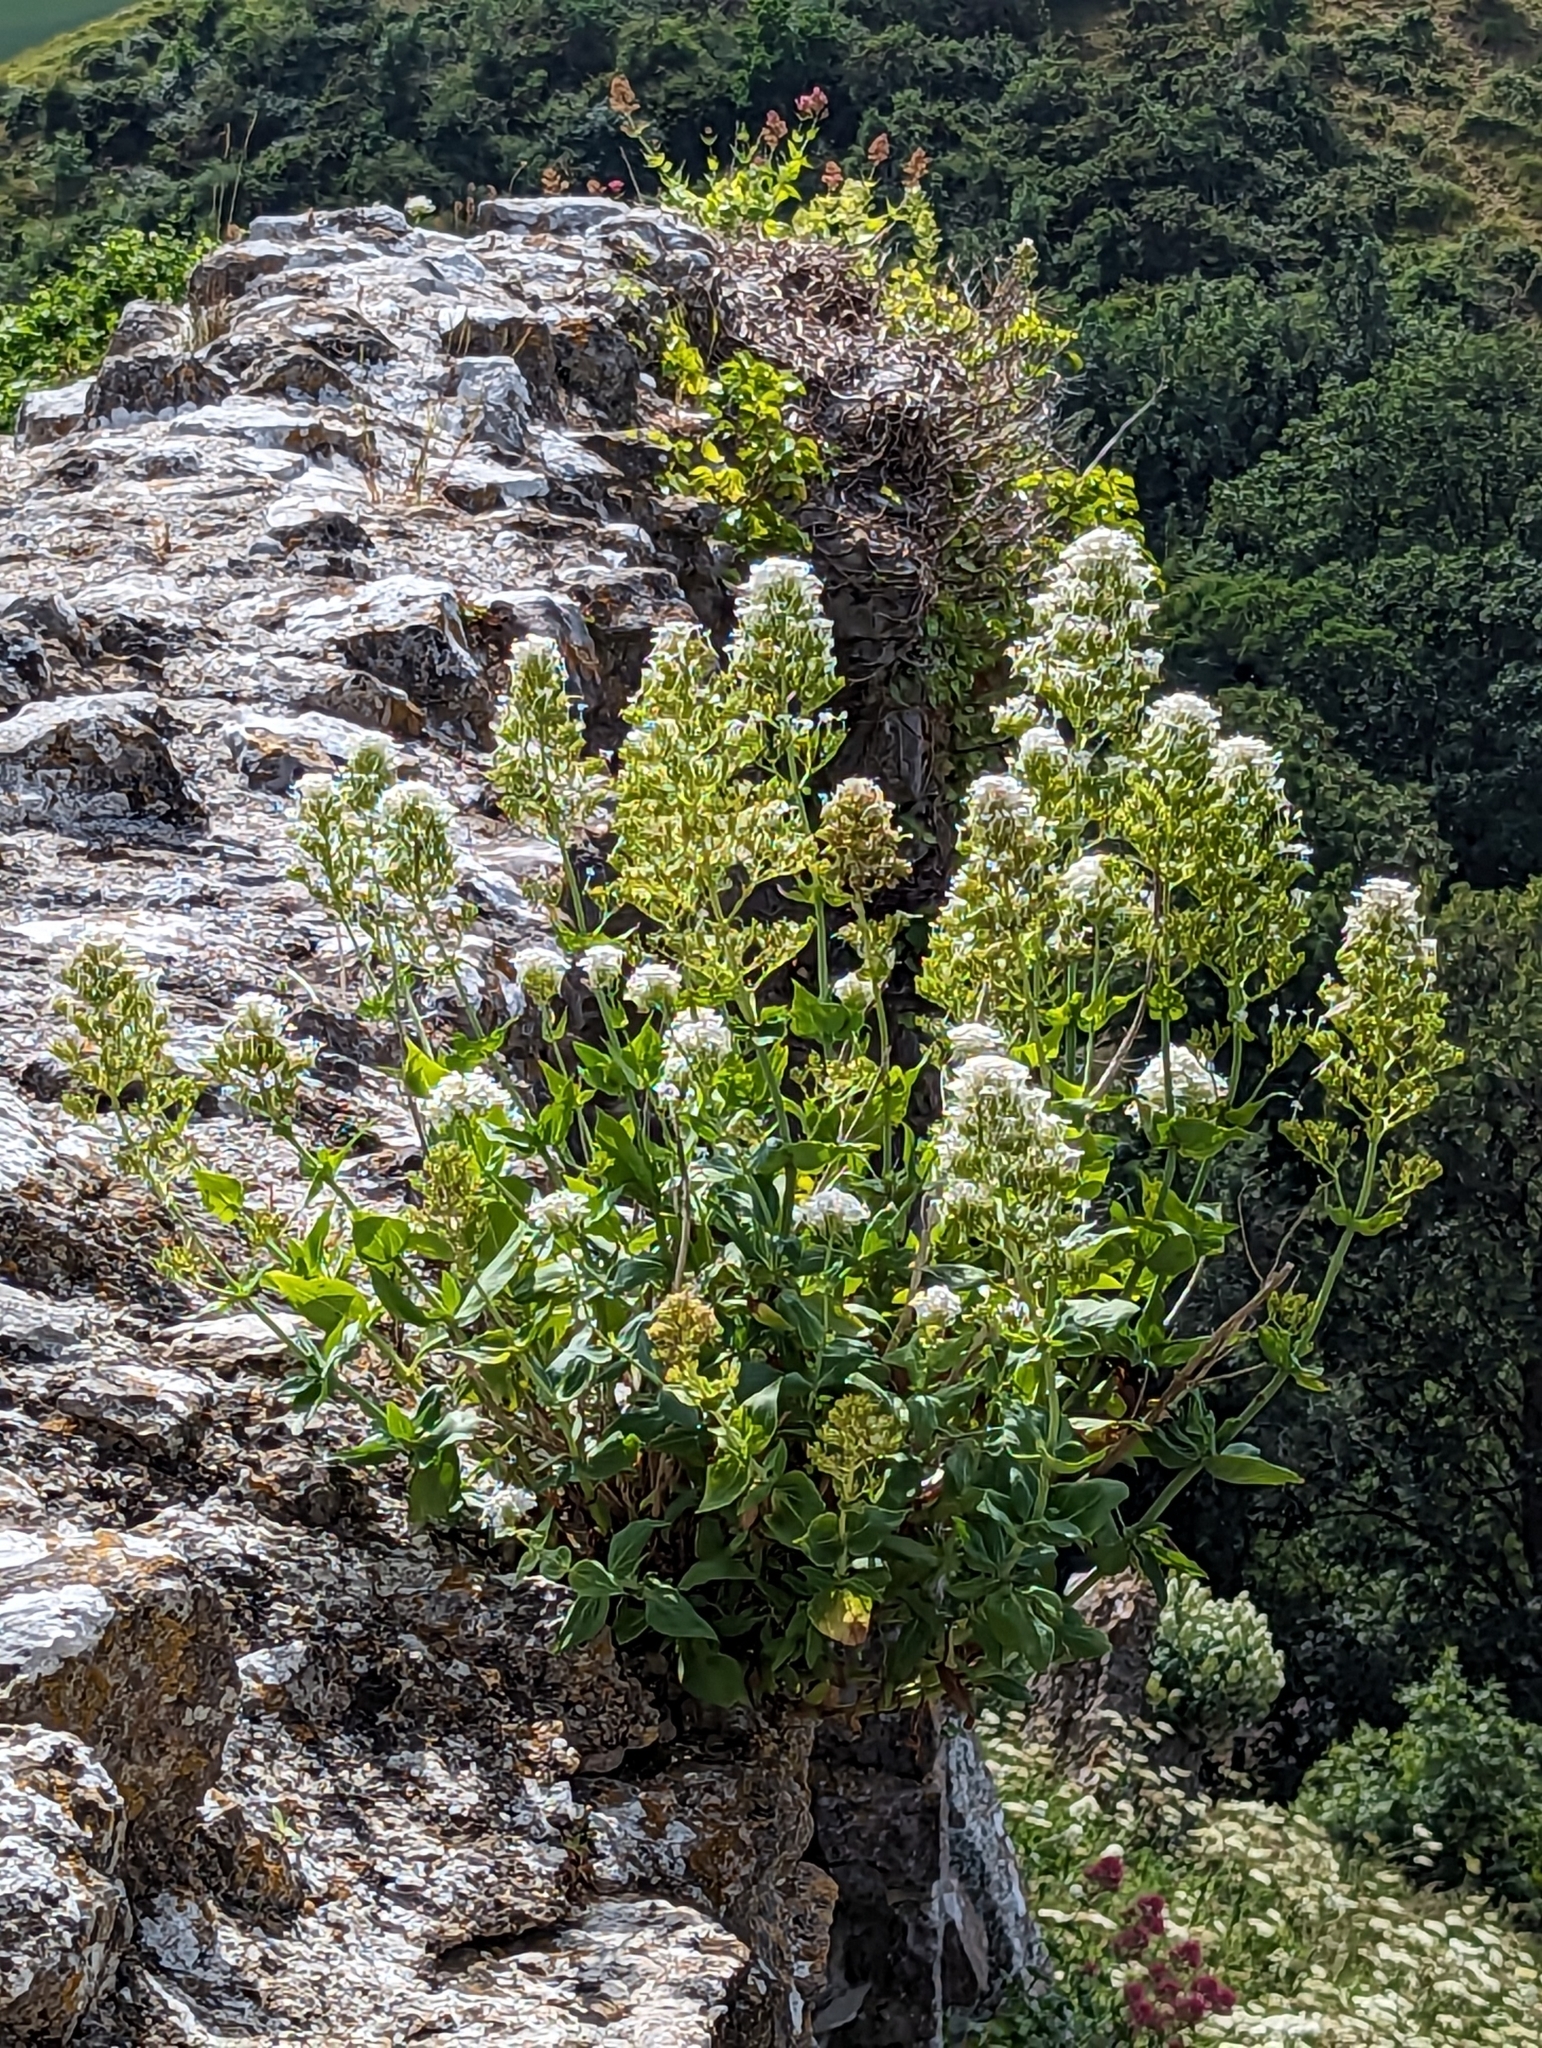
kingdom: Plantae
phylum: Tracheophyta
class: Magnoliopsida
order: Dipsacales
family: Caprifoliaceae
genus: Centranthus
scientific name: Centranthus ruber
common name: Red valerian
